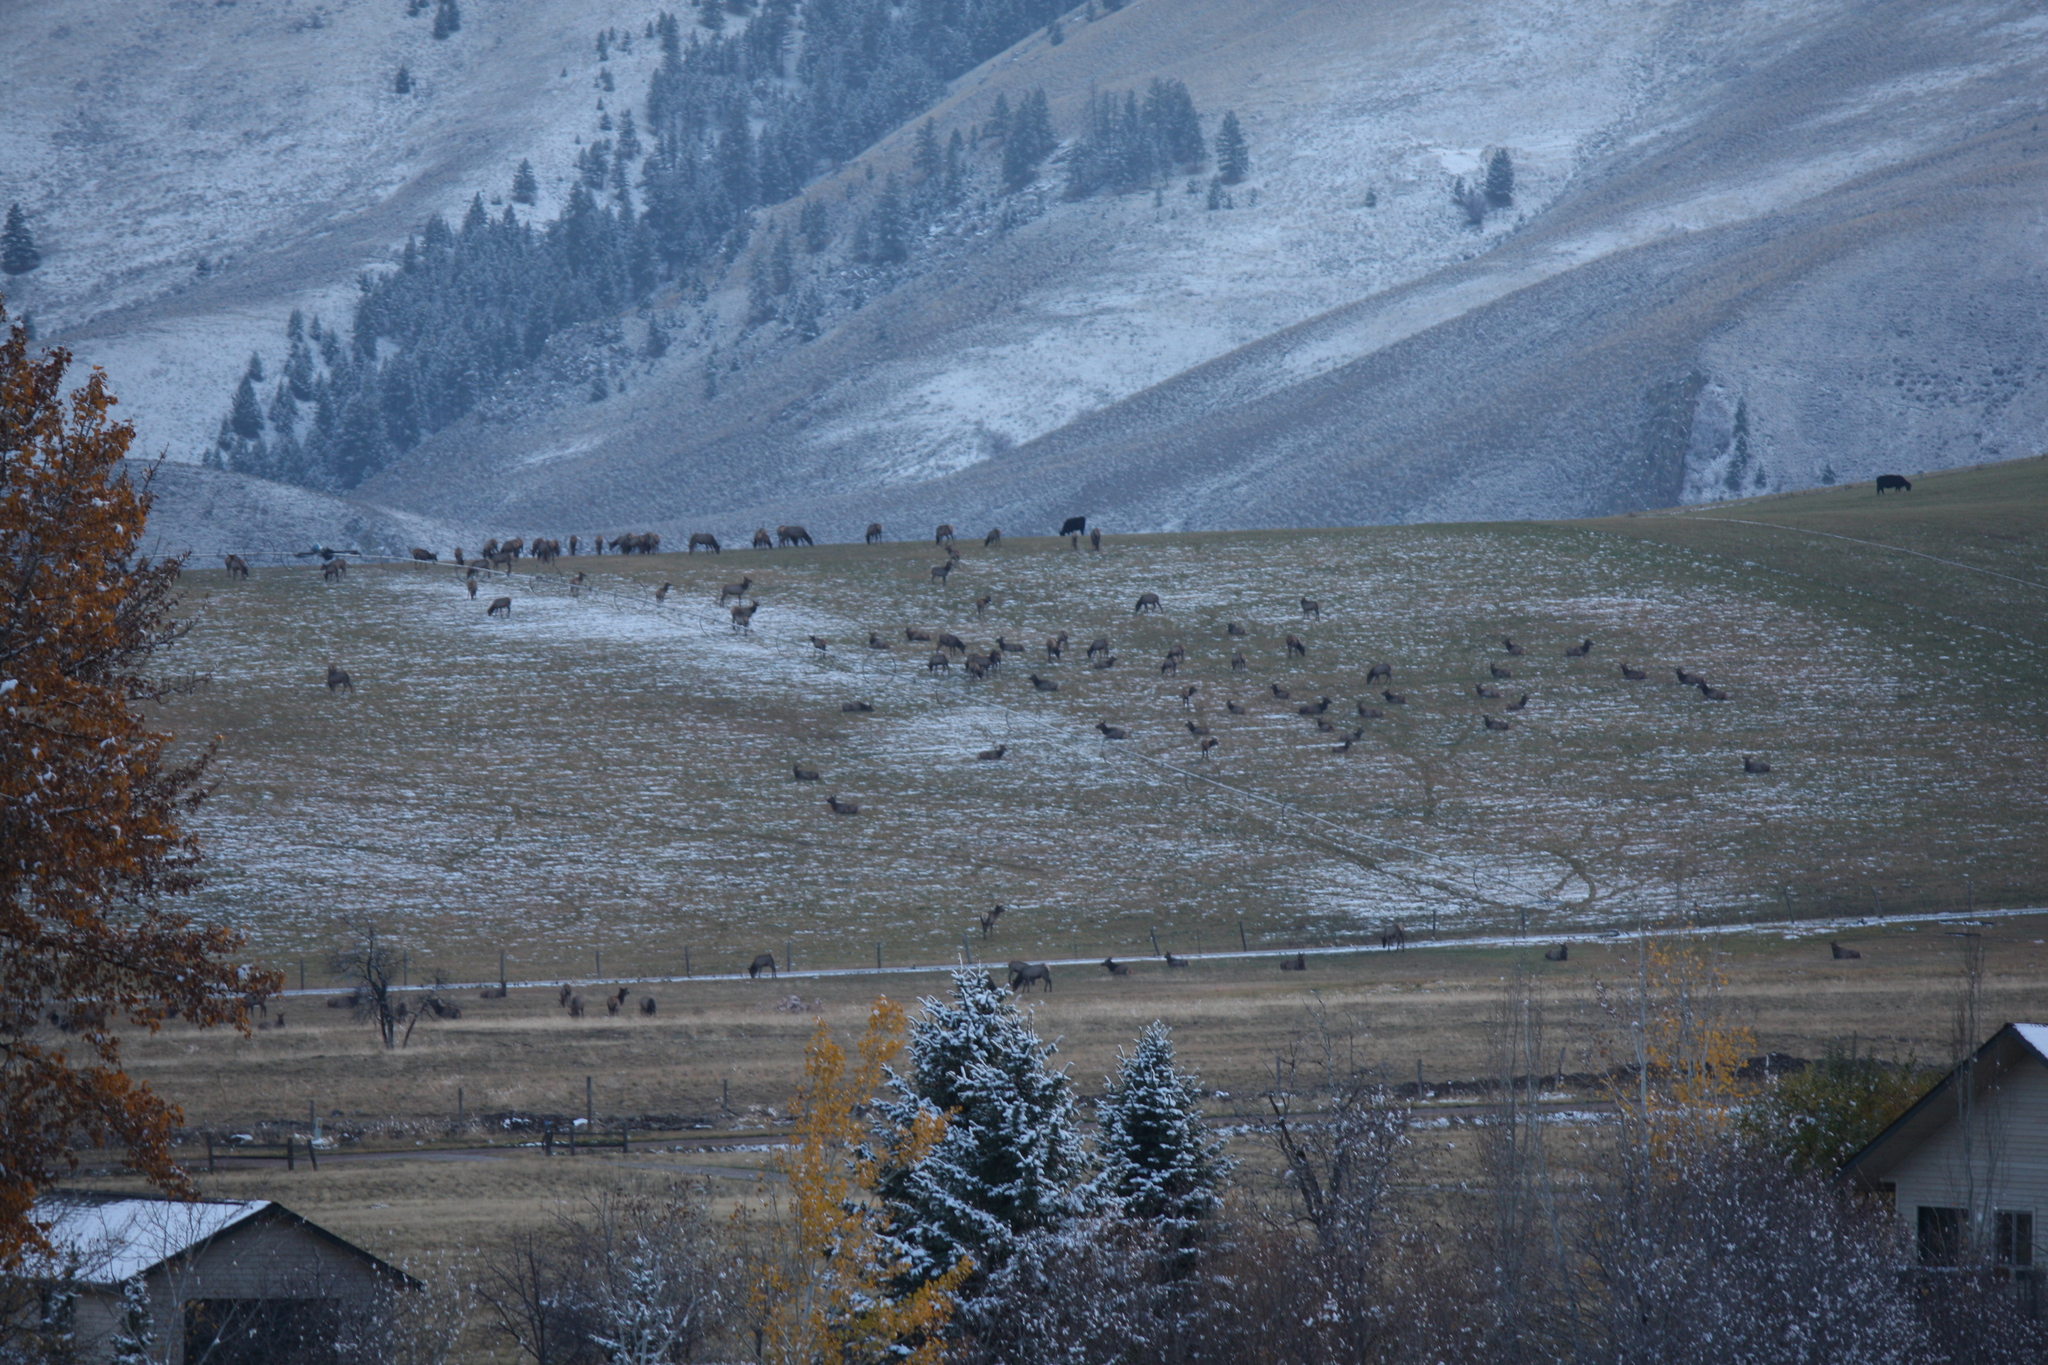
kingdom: Animalia
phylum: Chordata
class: Mammalia
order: Artiodactyla
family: Cervidae
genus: Cervus
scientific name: Cervus elaphus
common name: Red deer
